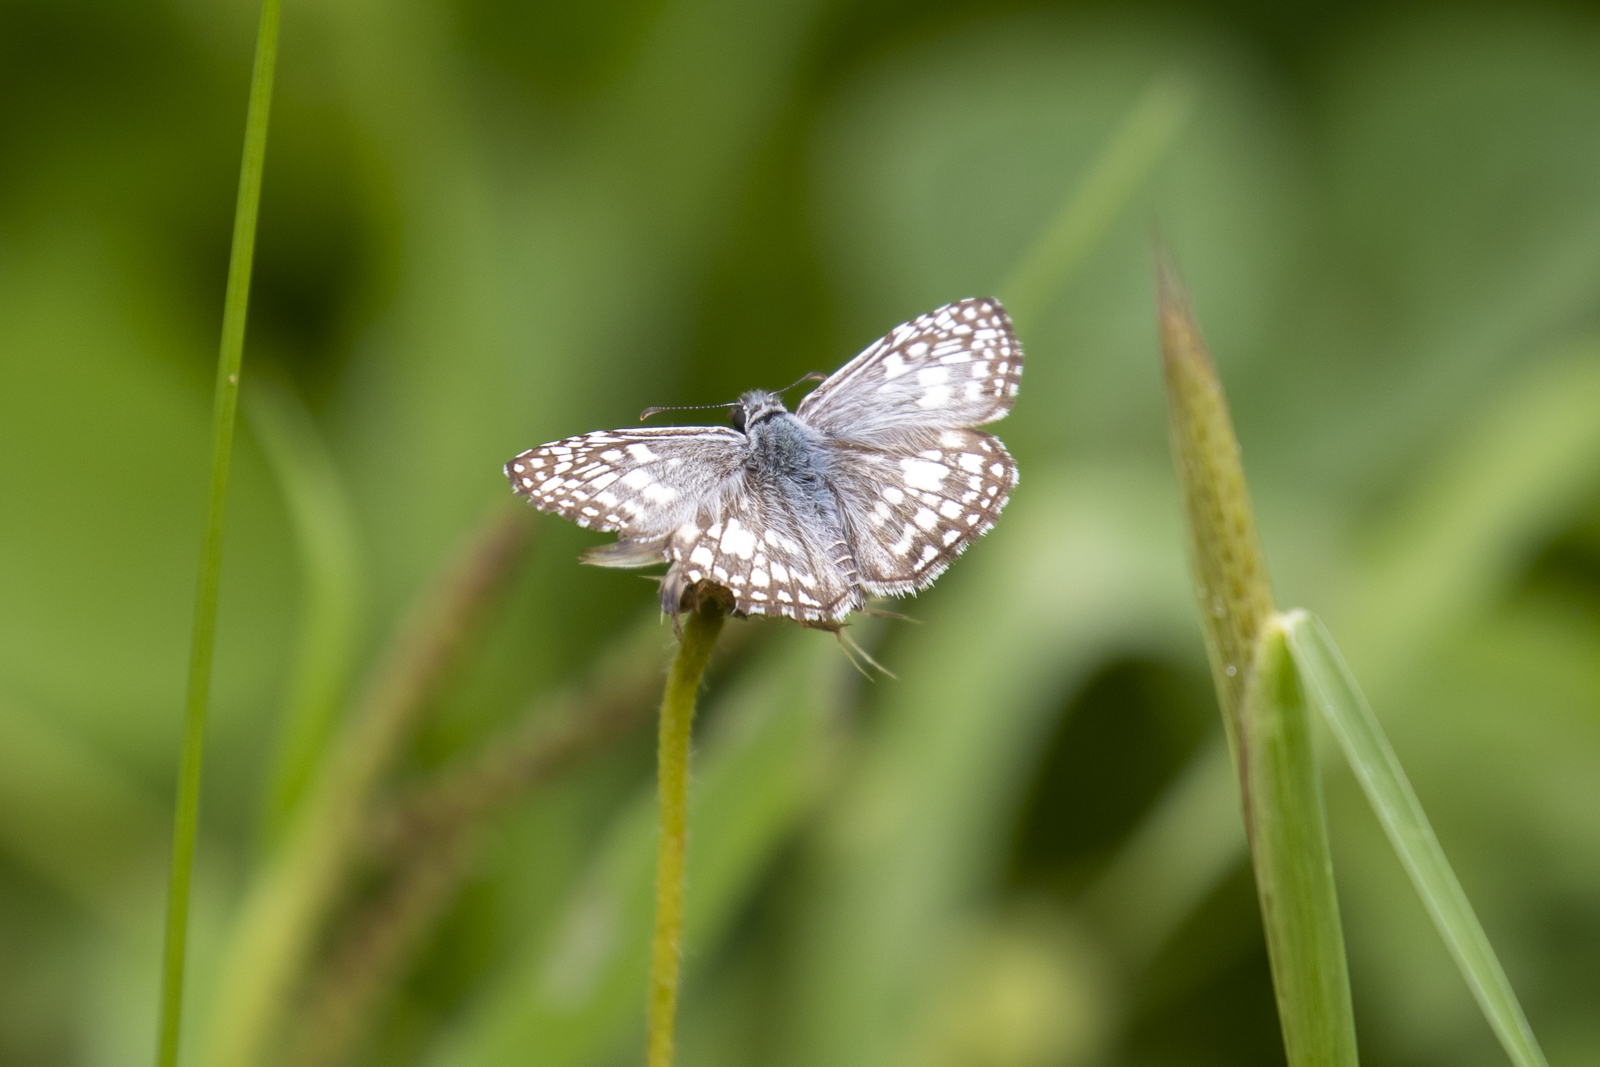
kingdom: Animalia
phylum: Arthropoda
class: Insecta
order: Lepidoptera
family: Hesperiidae
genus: Pyrgus
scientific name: Pyrgus oileus
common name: Tropical checkered-skipper
